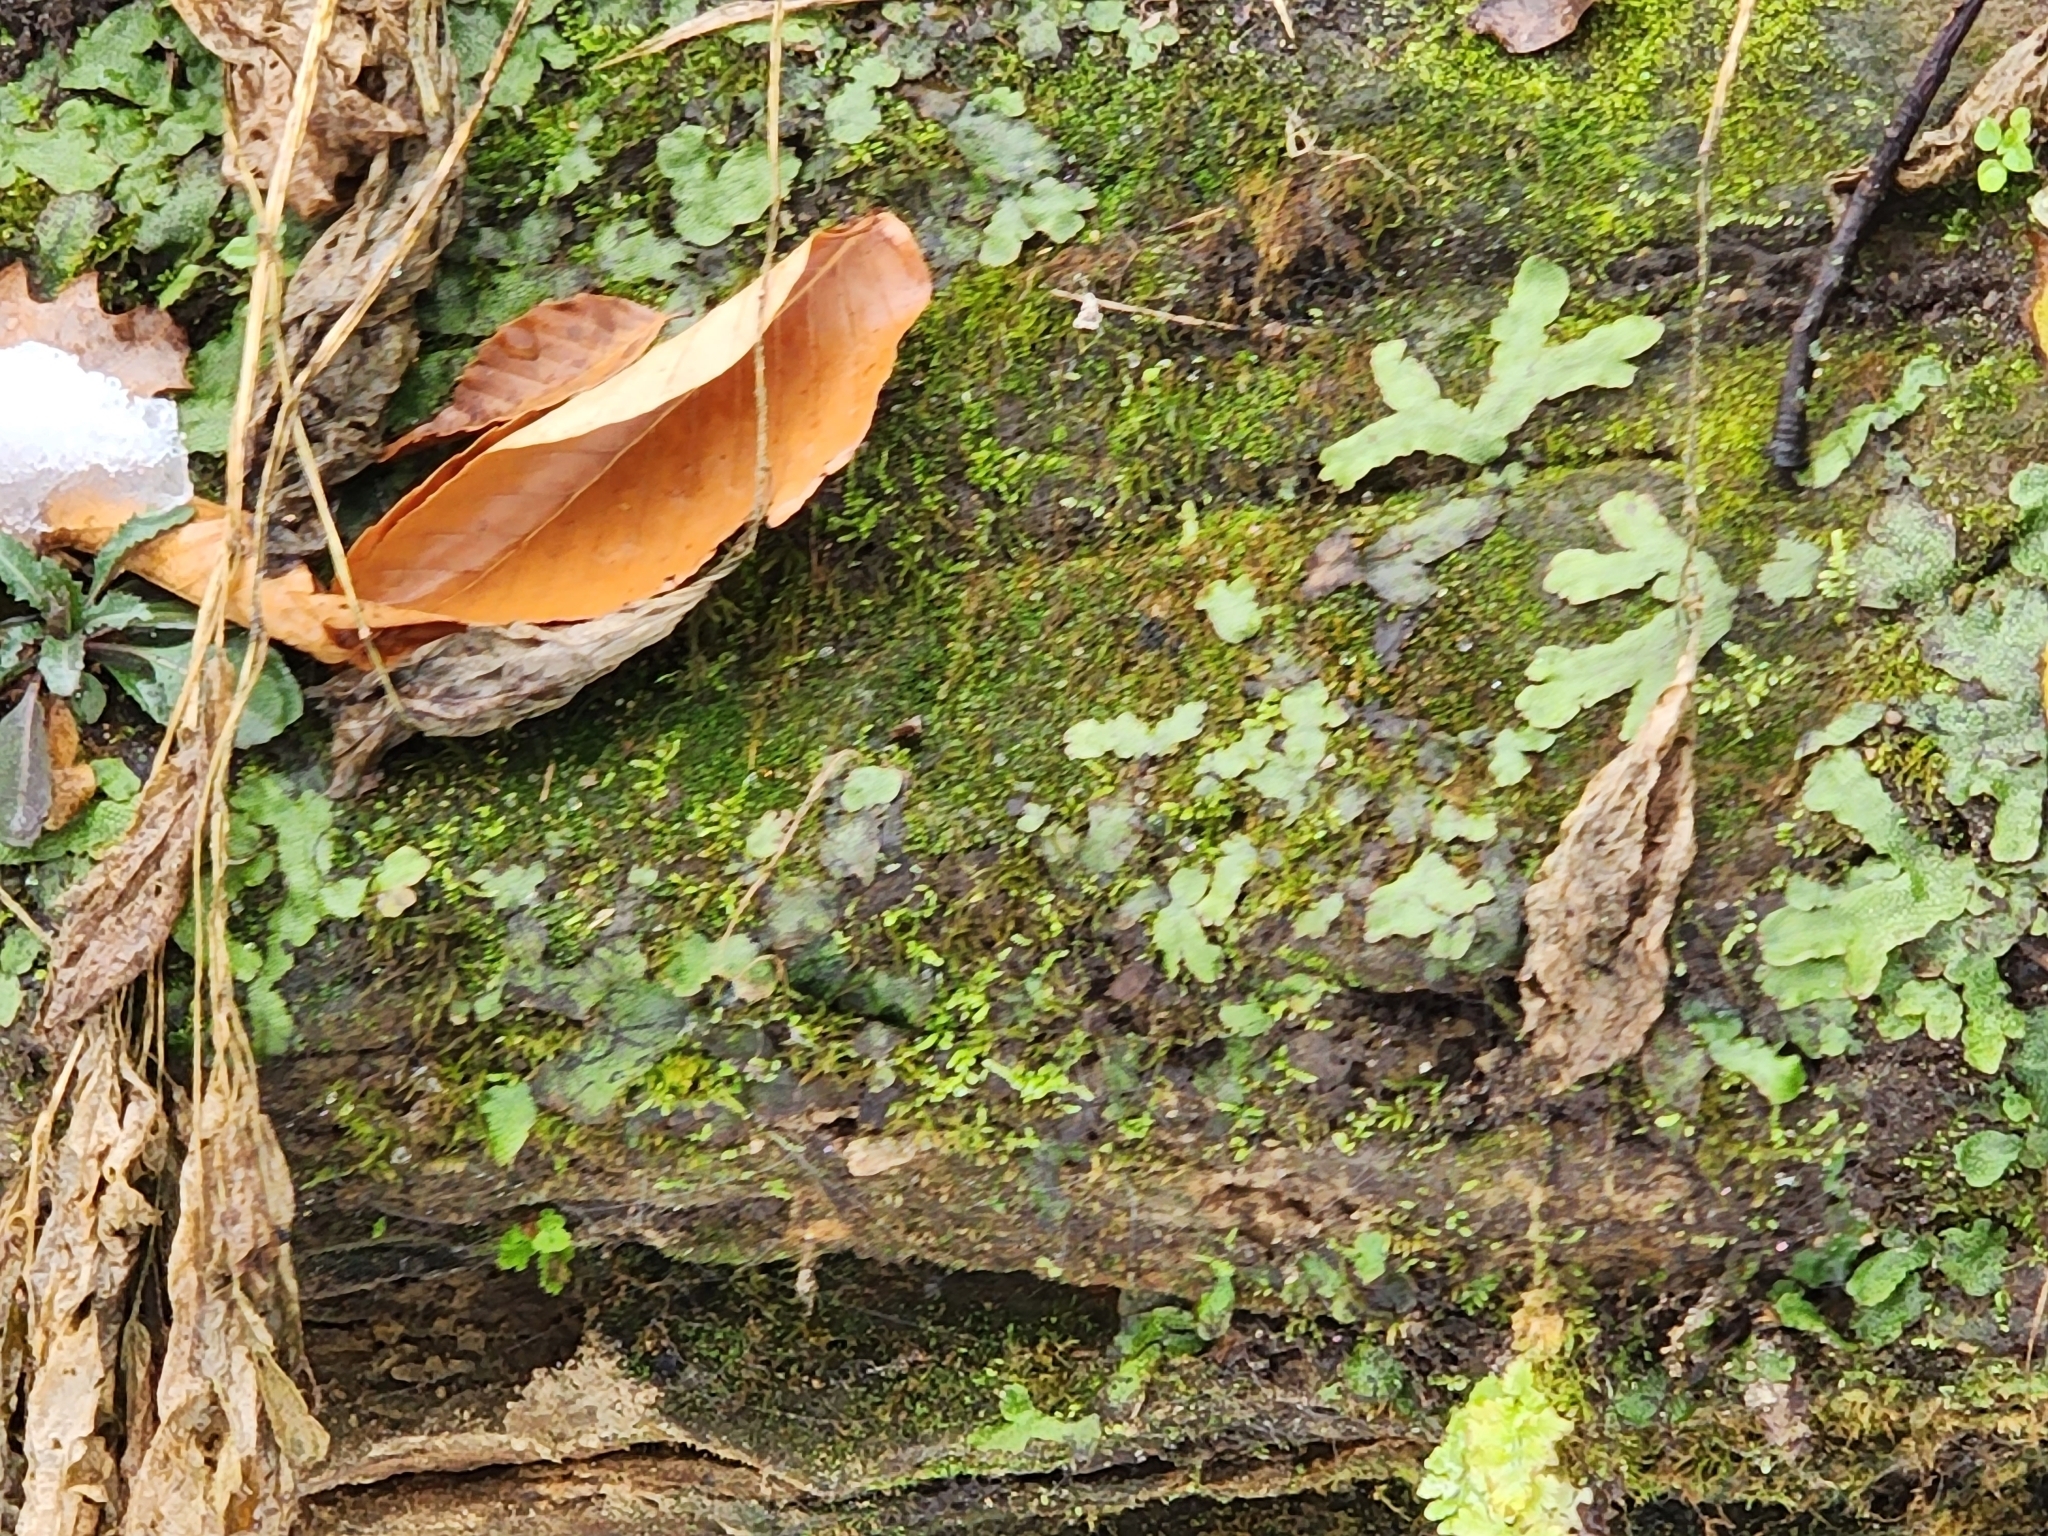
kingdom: Plantae
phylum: Marchantiophyta
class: Marchantiopsida
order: Marchantiales
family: Conocephalaceae
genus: Conocephalum
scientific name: Conocephalum salebrosum
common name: Cat-tongue liverwort
